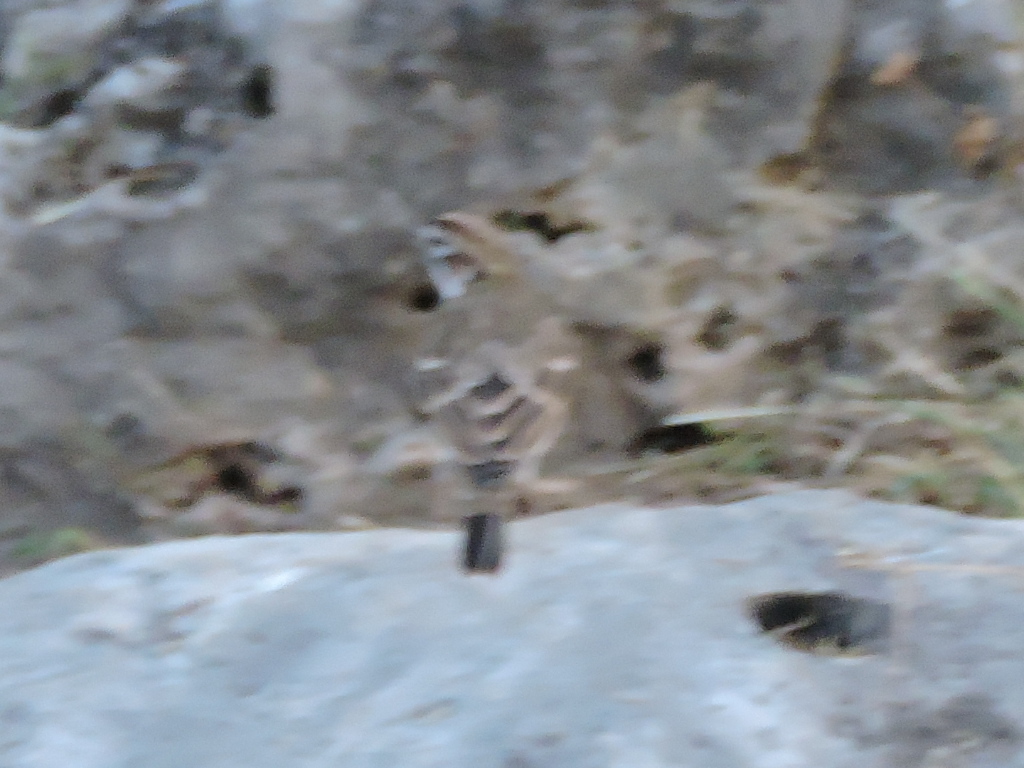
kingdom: Animalia
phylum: Chordata
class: Aves
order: Passeriformes
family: Passerellidae
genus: Chondestes
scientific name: Chondestes grammacus
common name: Lark sparrow
